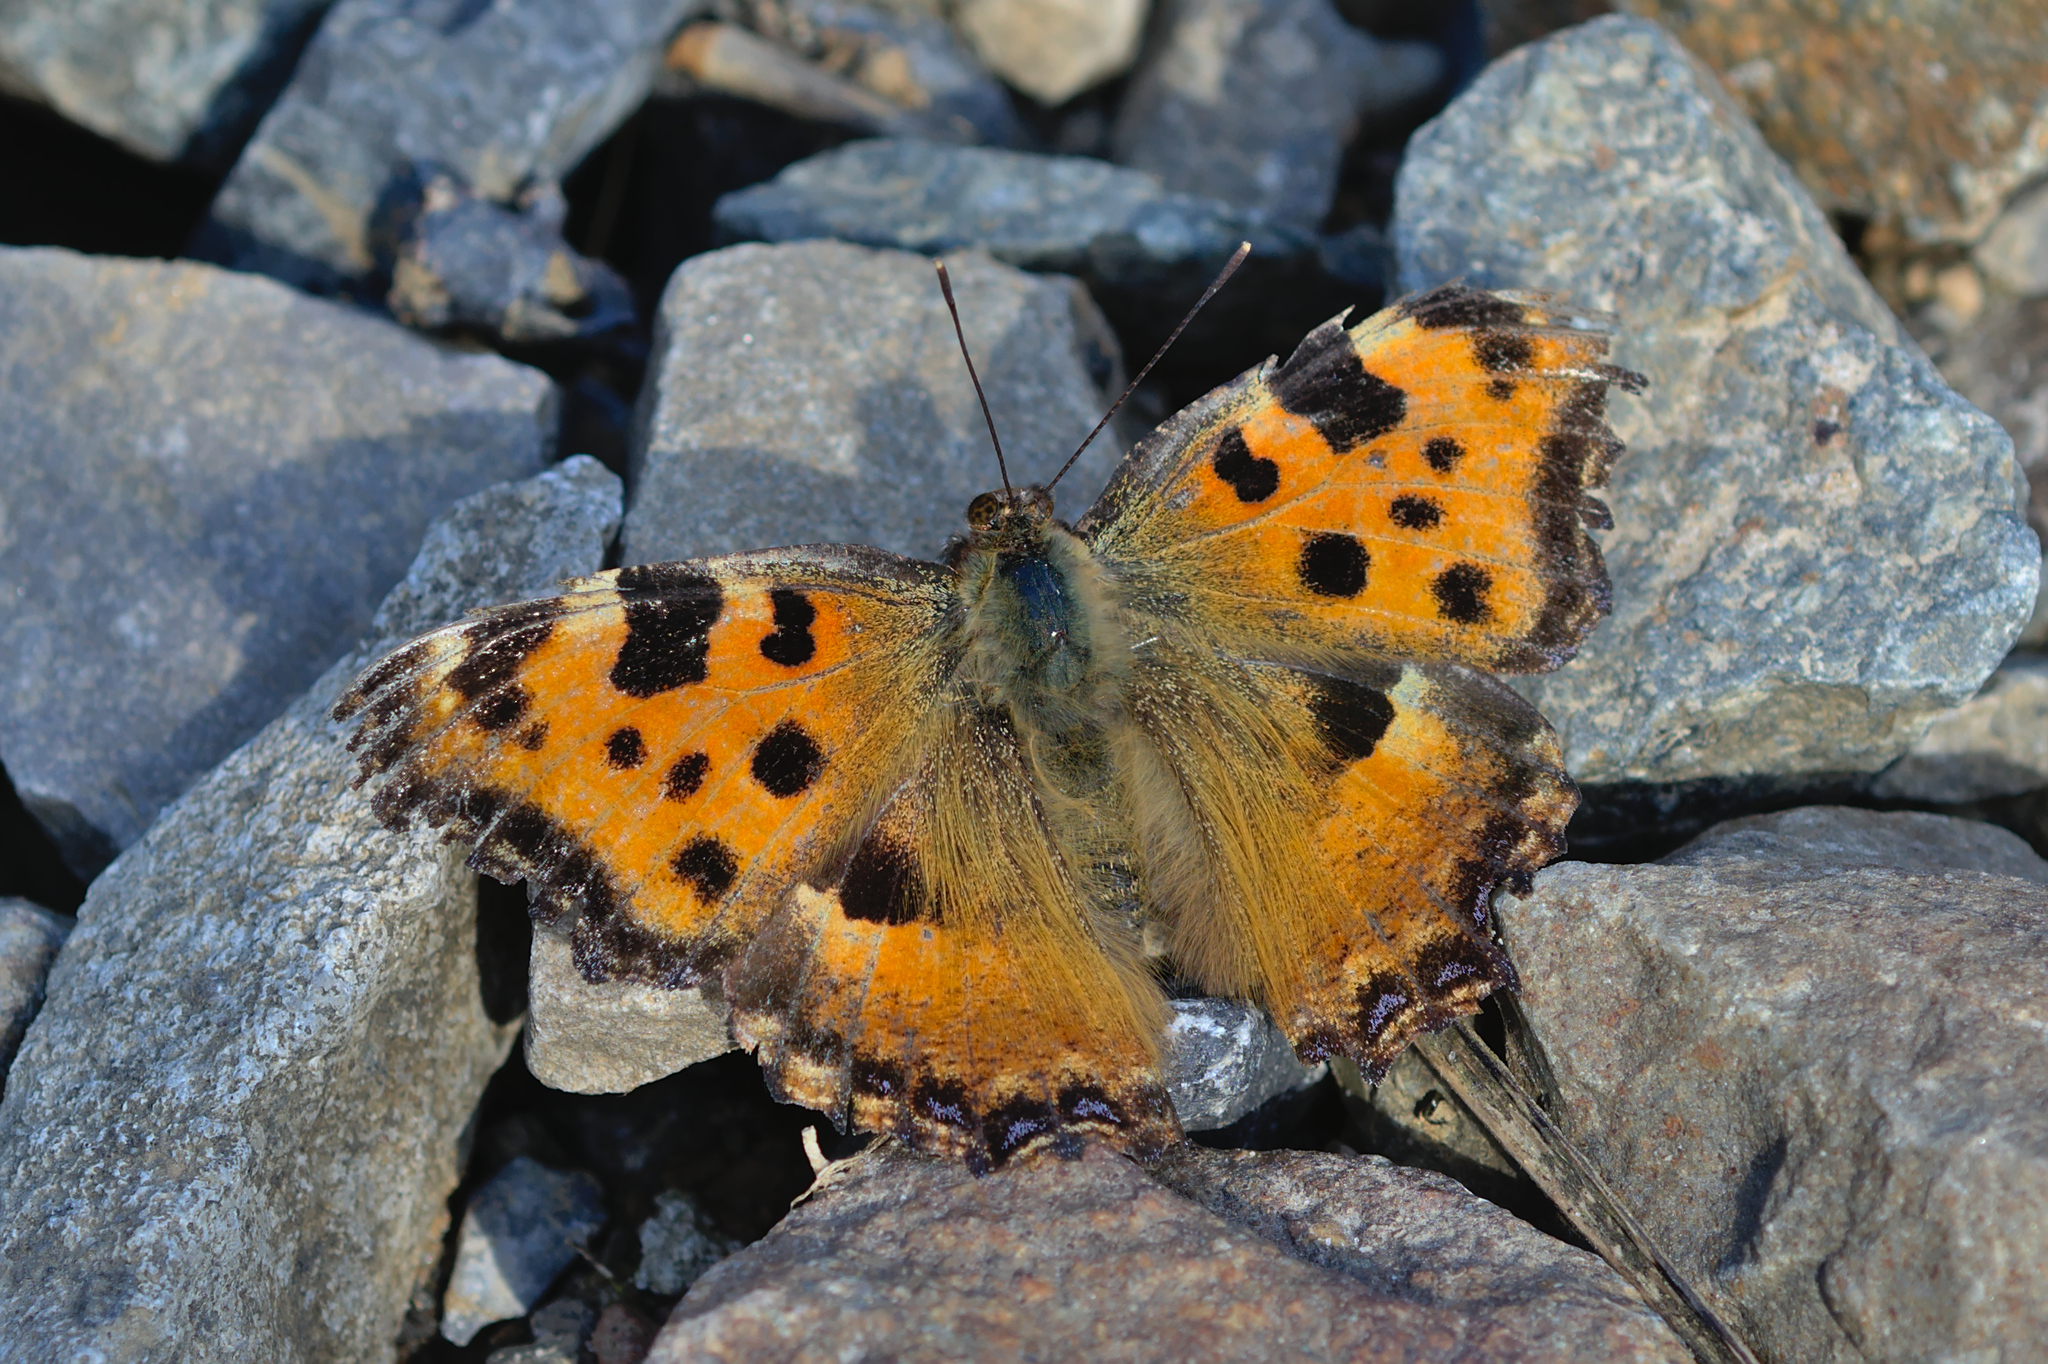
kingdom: Animalia
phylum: Arthropoda
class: Insecta
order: Lepidoptera
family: Nymphalidae
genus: Nymphalis
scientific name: Nymphalis polychloros
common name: Large tortoiseshell
